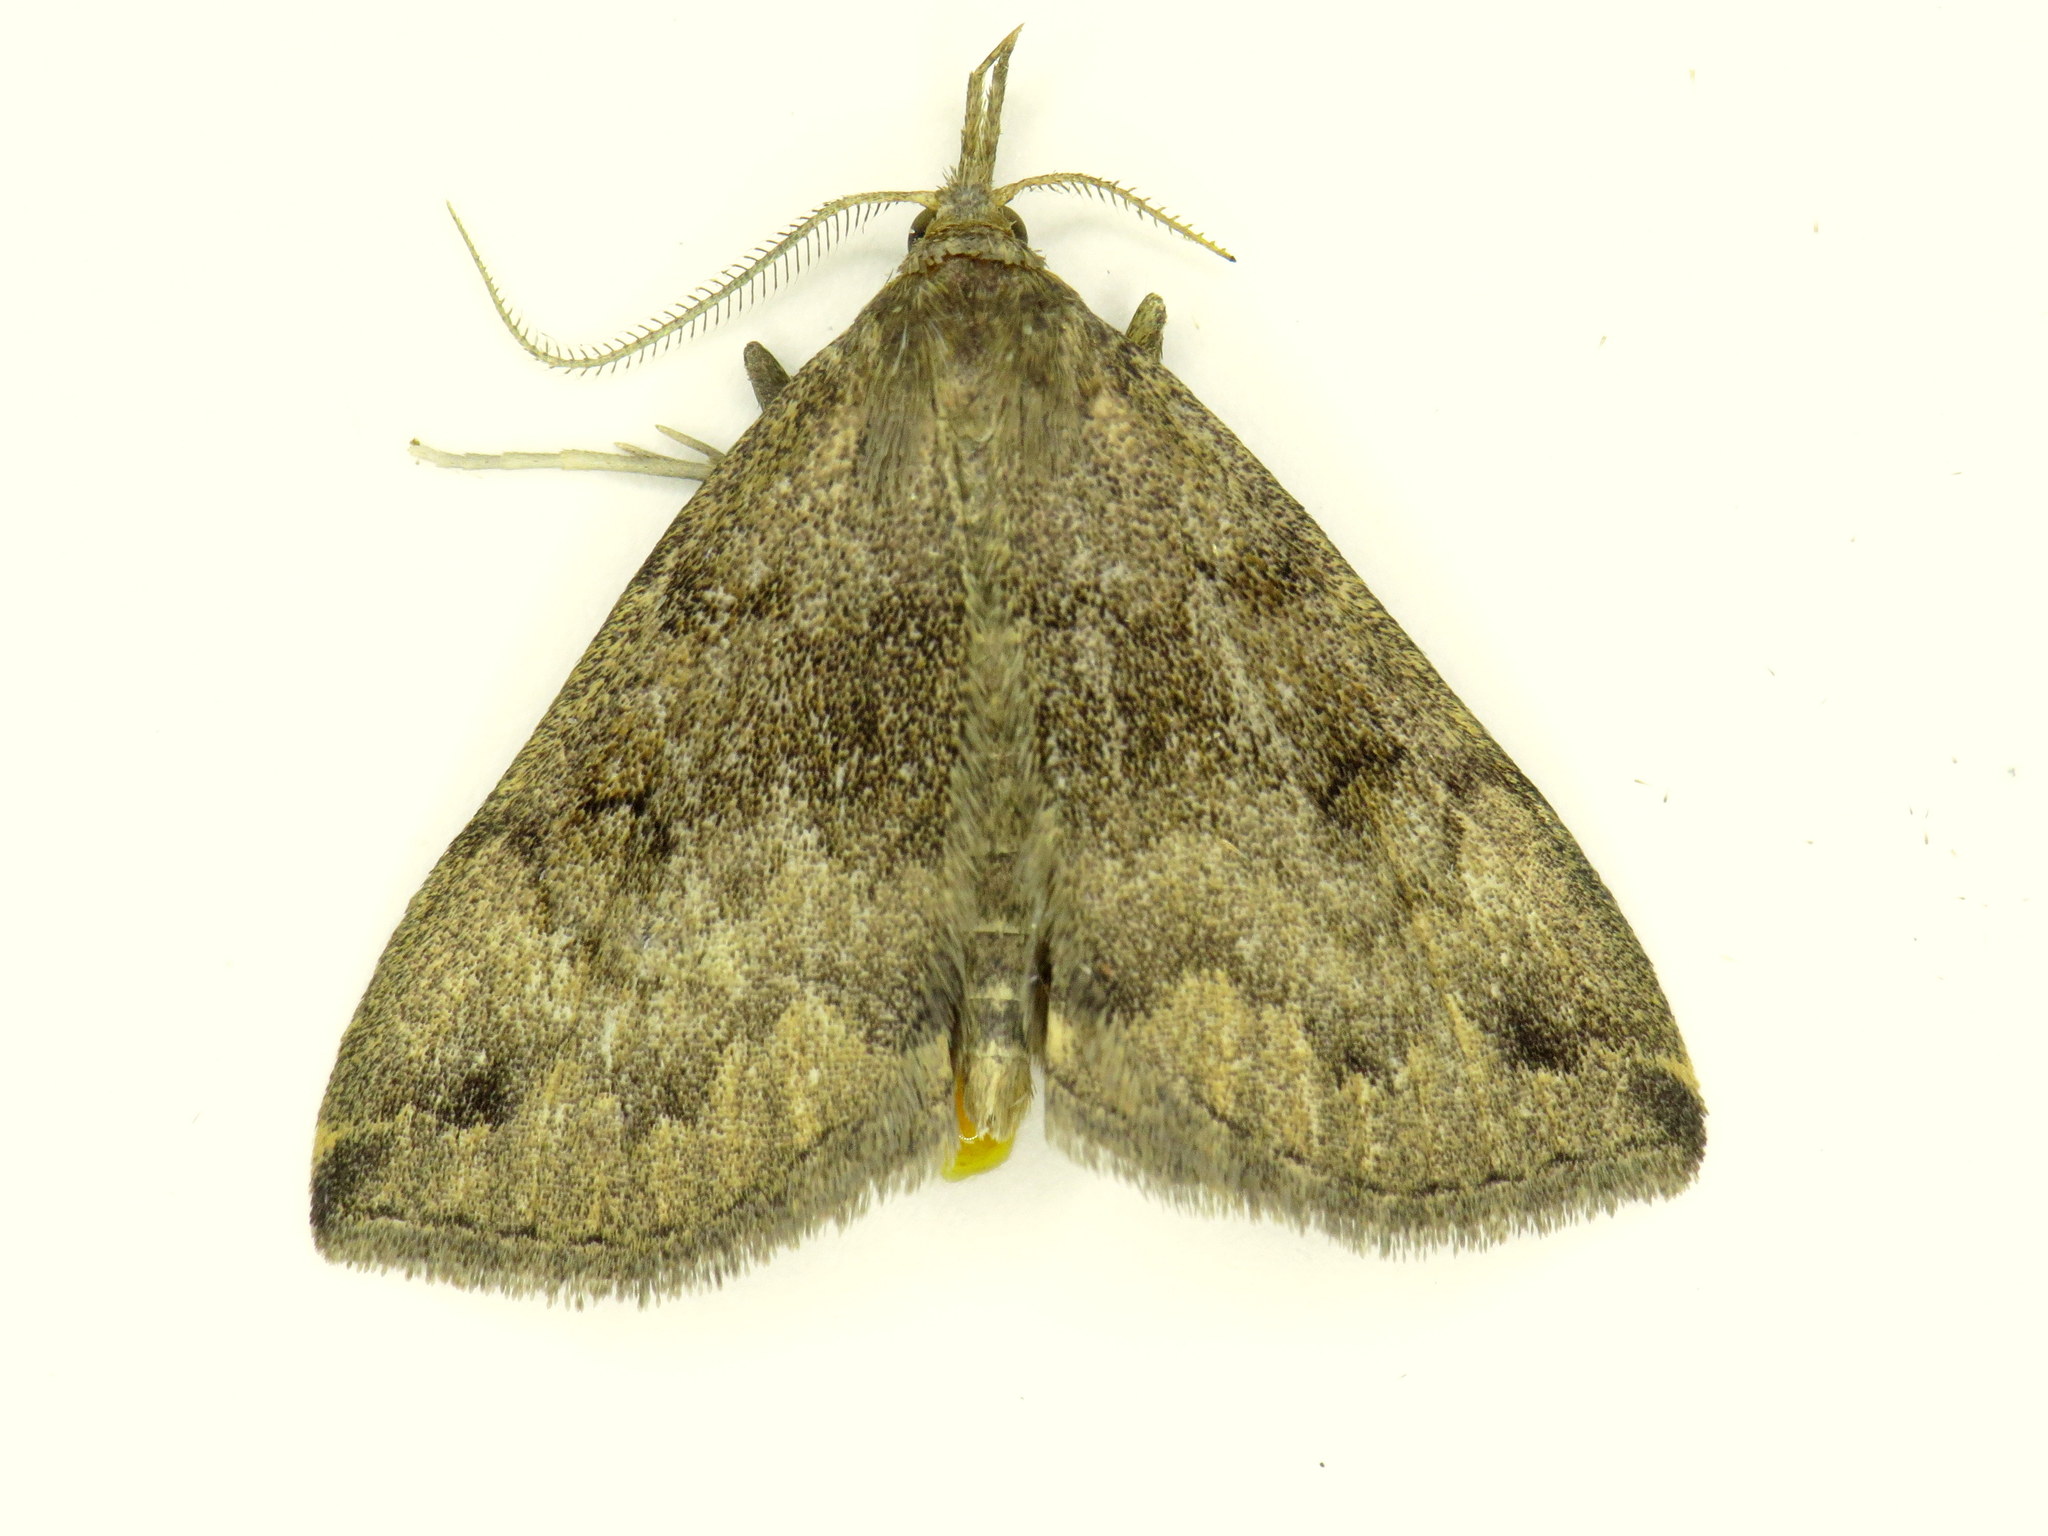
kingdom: Animalia
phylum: Arthropoda
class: Insecta
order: Lepidoptera
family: Erebidae
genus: Phalaenostola
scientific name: Phalaenostola eumelusalis
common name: Dark phalaenostola moth
